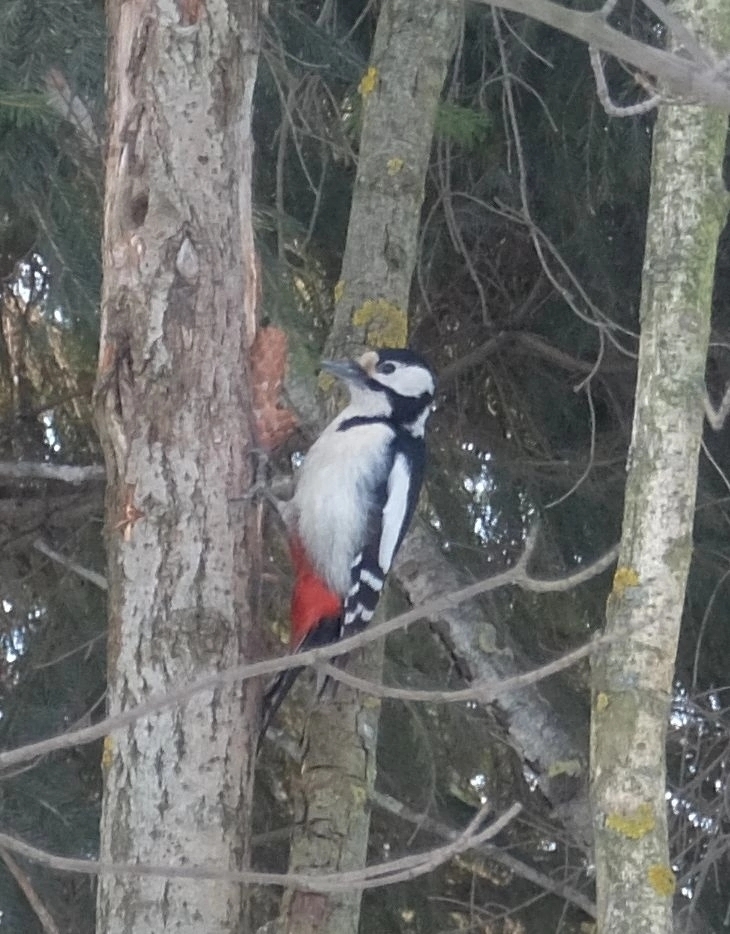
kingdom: Animalia
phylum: Chordata
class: Aves
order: Piciformes
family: Picidae
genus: Dendrocopos
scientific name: Dendrocopos major
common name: Great spotted woodpecker
